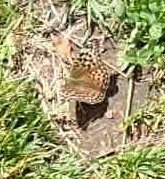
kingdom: Animalia
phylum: Arthropoda
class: Insecta
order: Lepidoptera
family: Nymphalidae
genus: Argynnis
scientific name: Argynnis paphia
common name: Silver-washed fritillary
